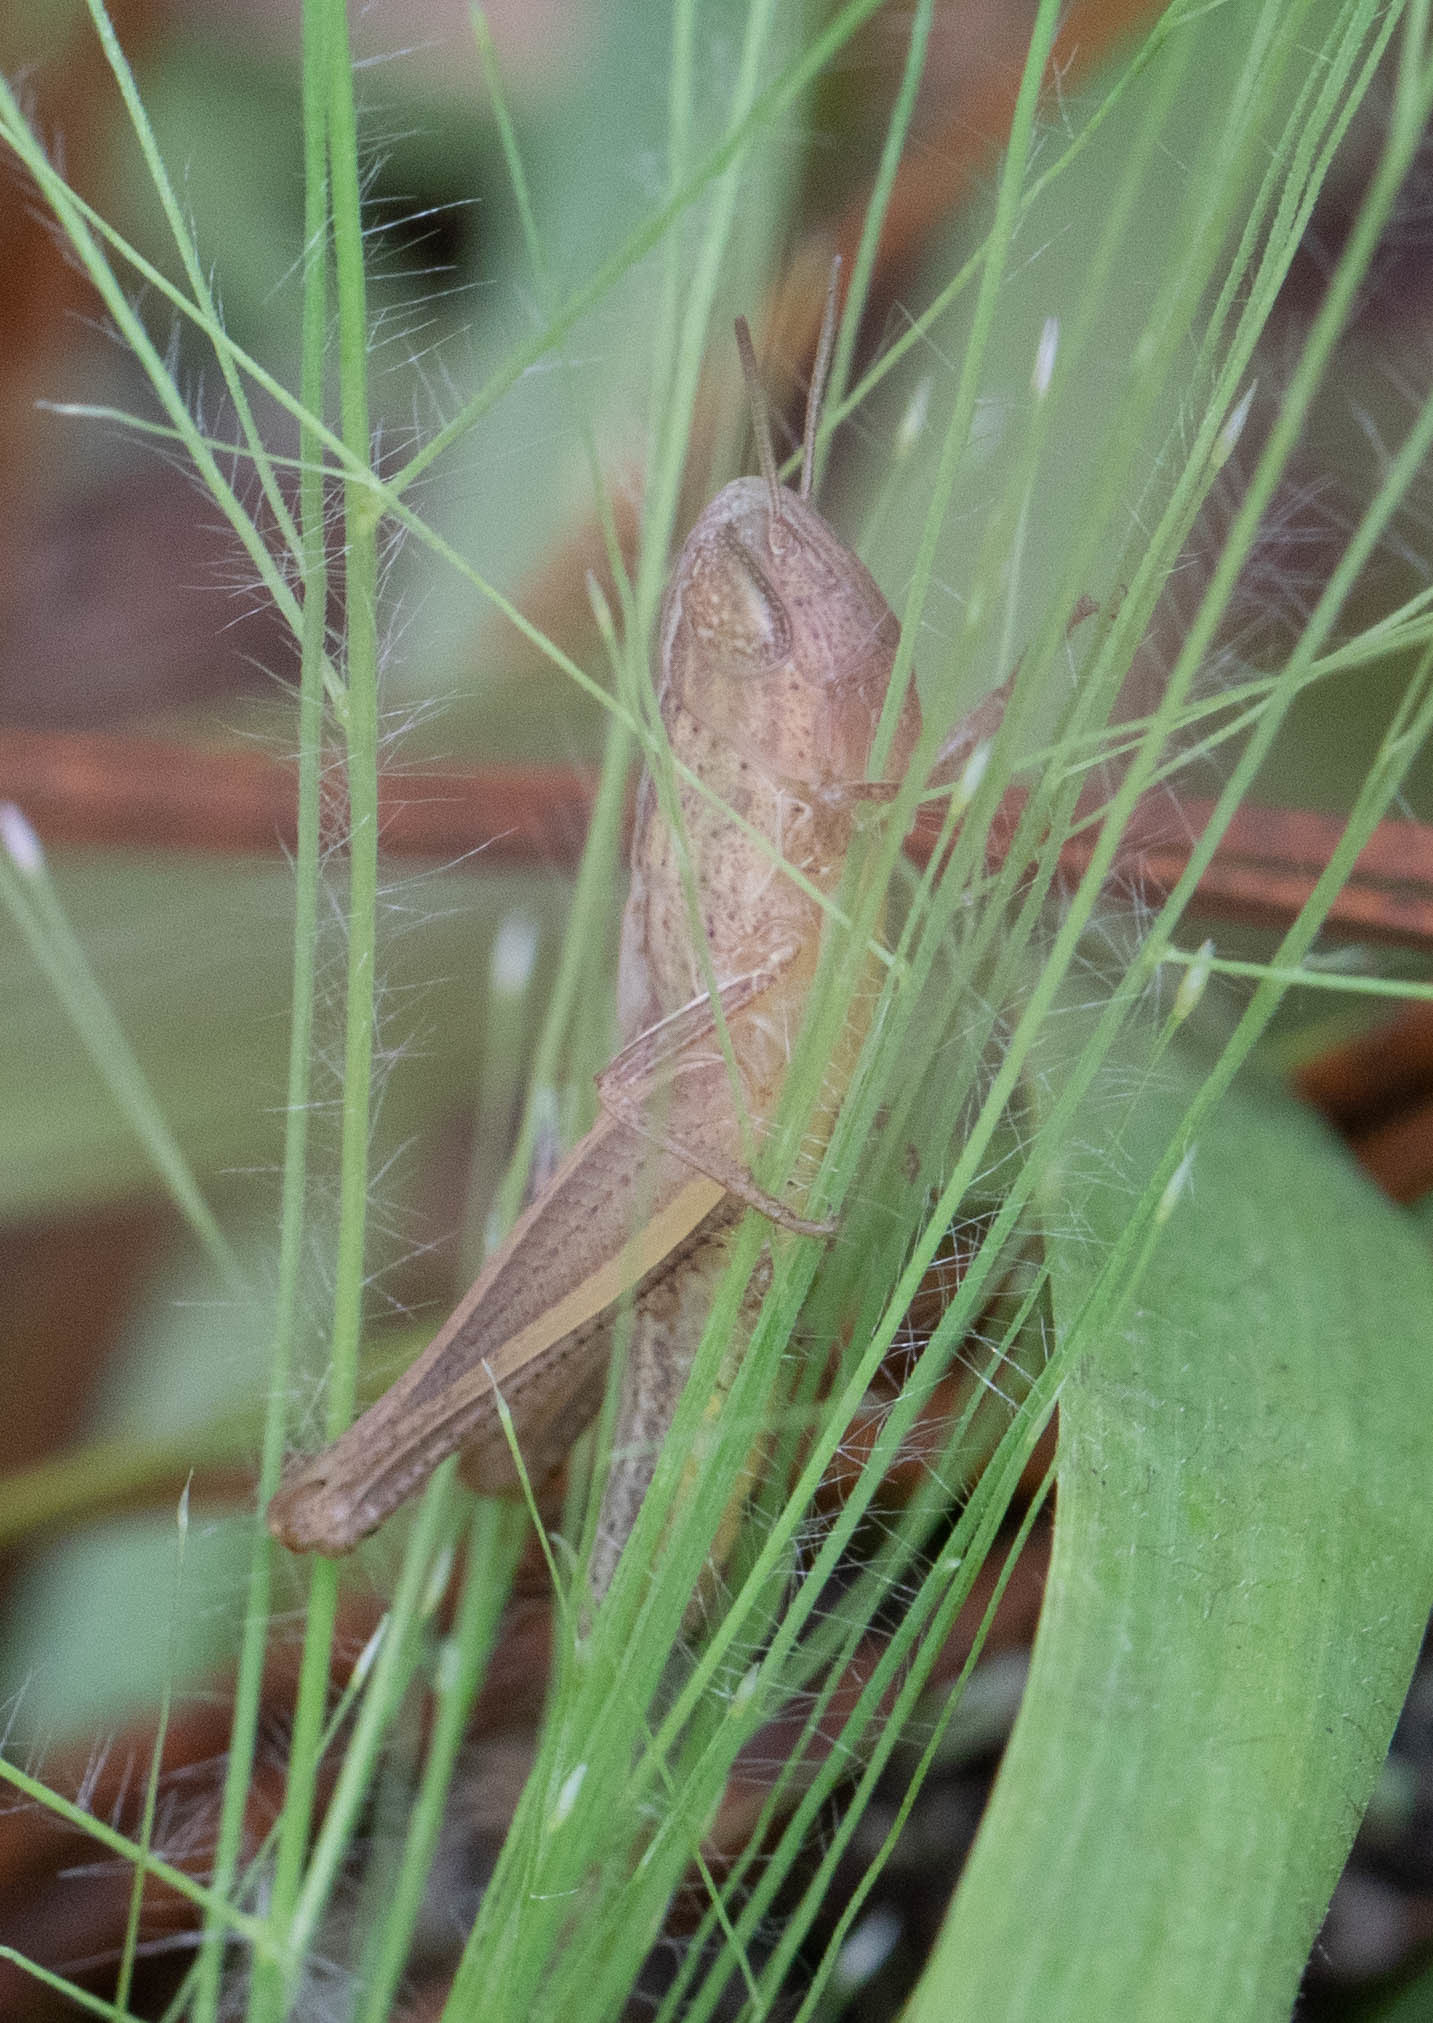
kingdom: Animalia
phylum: Arthropoda
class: Insecta
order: Orthoptera
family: Acrididae
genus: Amblytropidia
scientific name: Amblytropidia mysteca
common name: Brown winter grasshopper
